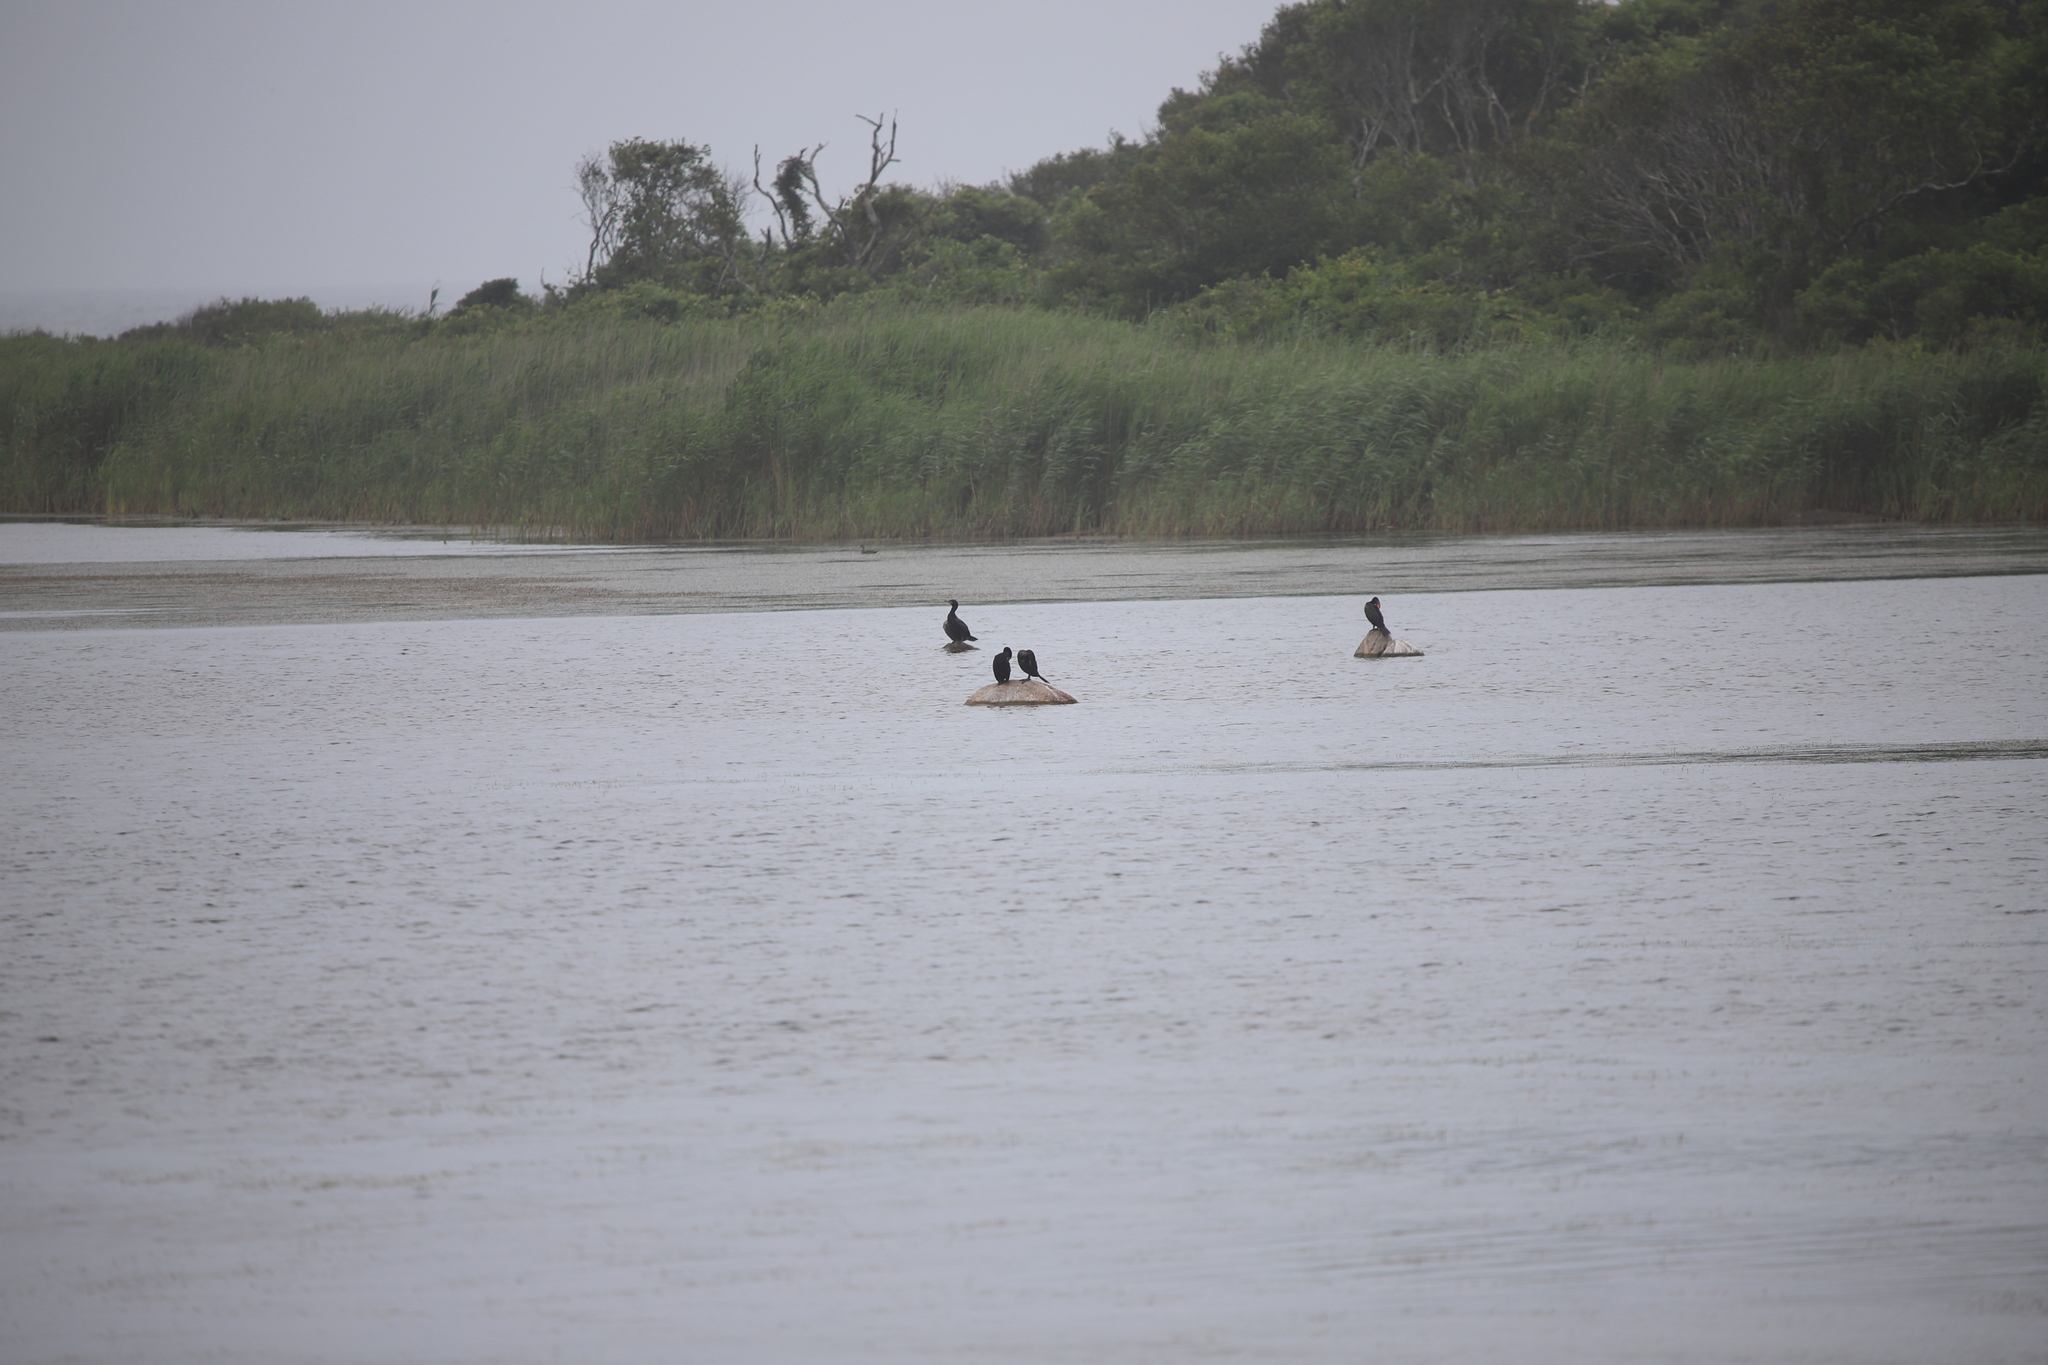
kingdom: Animalia
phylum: Chordata
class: Aves
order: Suliformes
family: Phalacrocoracidae
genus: Phalacrocorax
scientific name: Phalacrocorax auritus
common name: Double-crested cormorant
